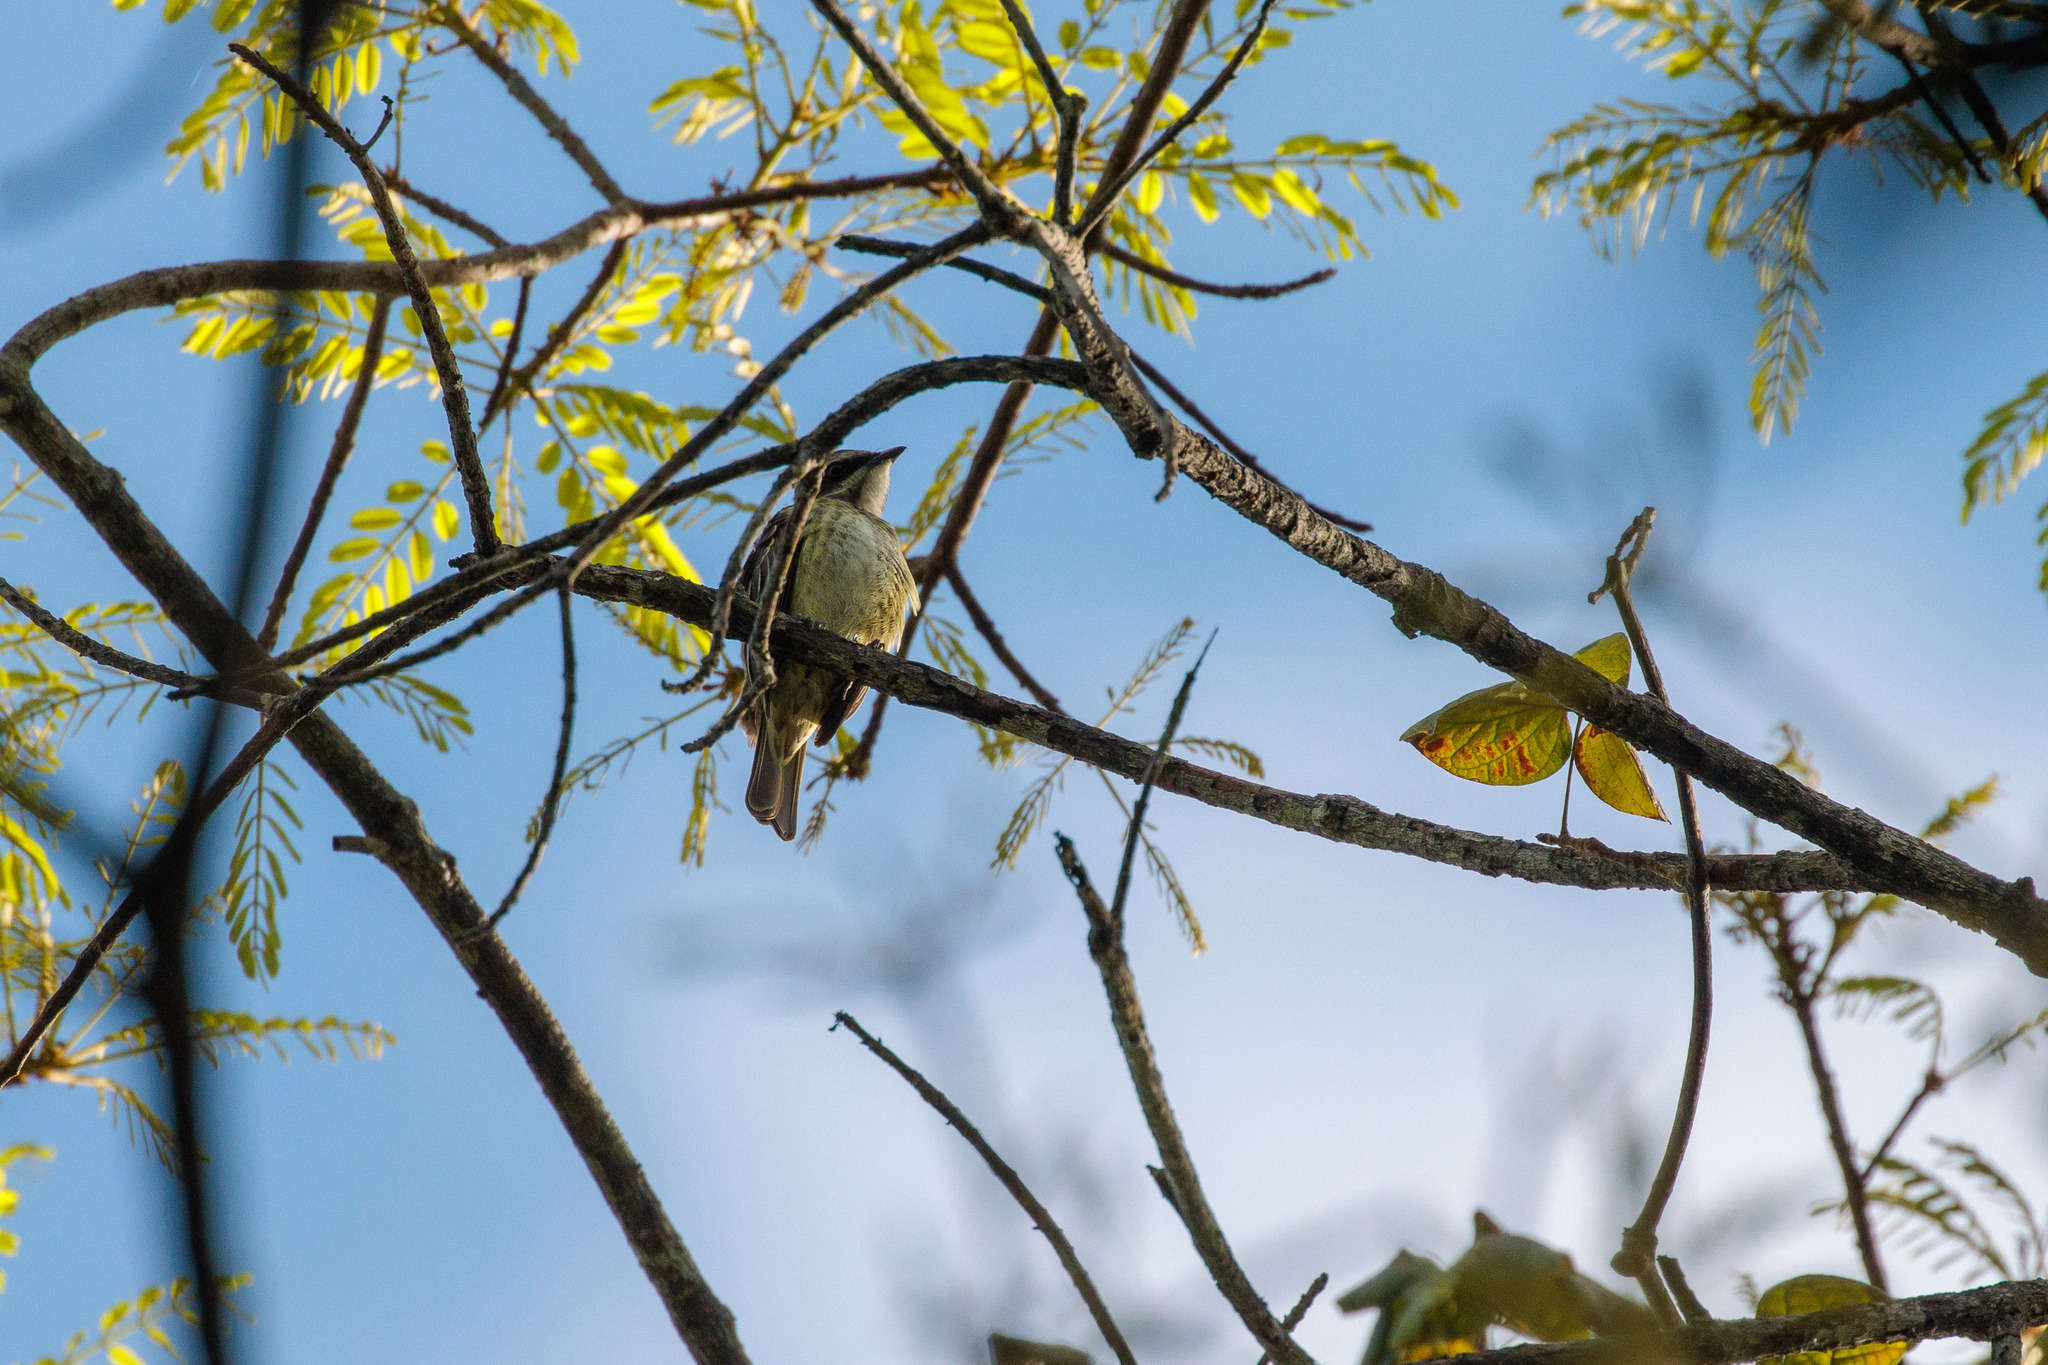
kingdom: Animalia
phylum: Chordata
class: Aves
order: Passeriformes
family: Tyrannidae
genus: Legatus
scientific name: Legatus leucophaius
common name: Piratic flycatcher
